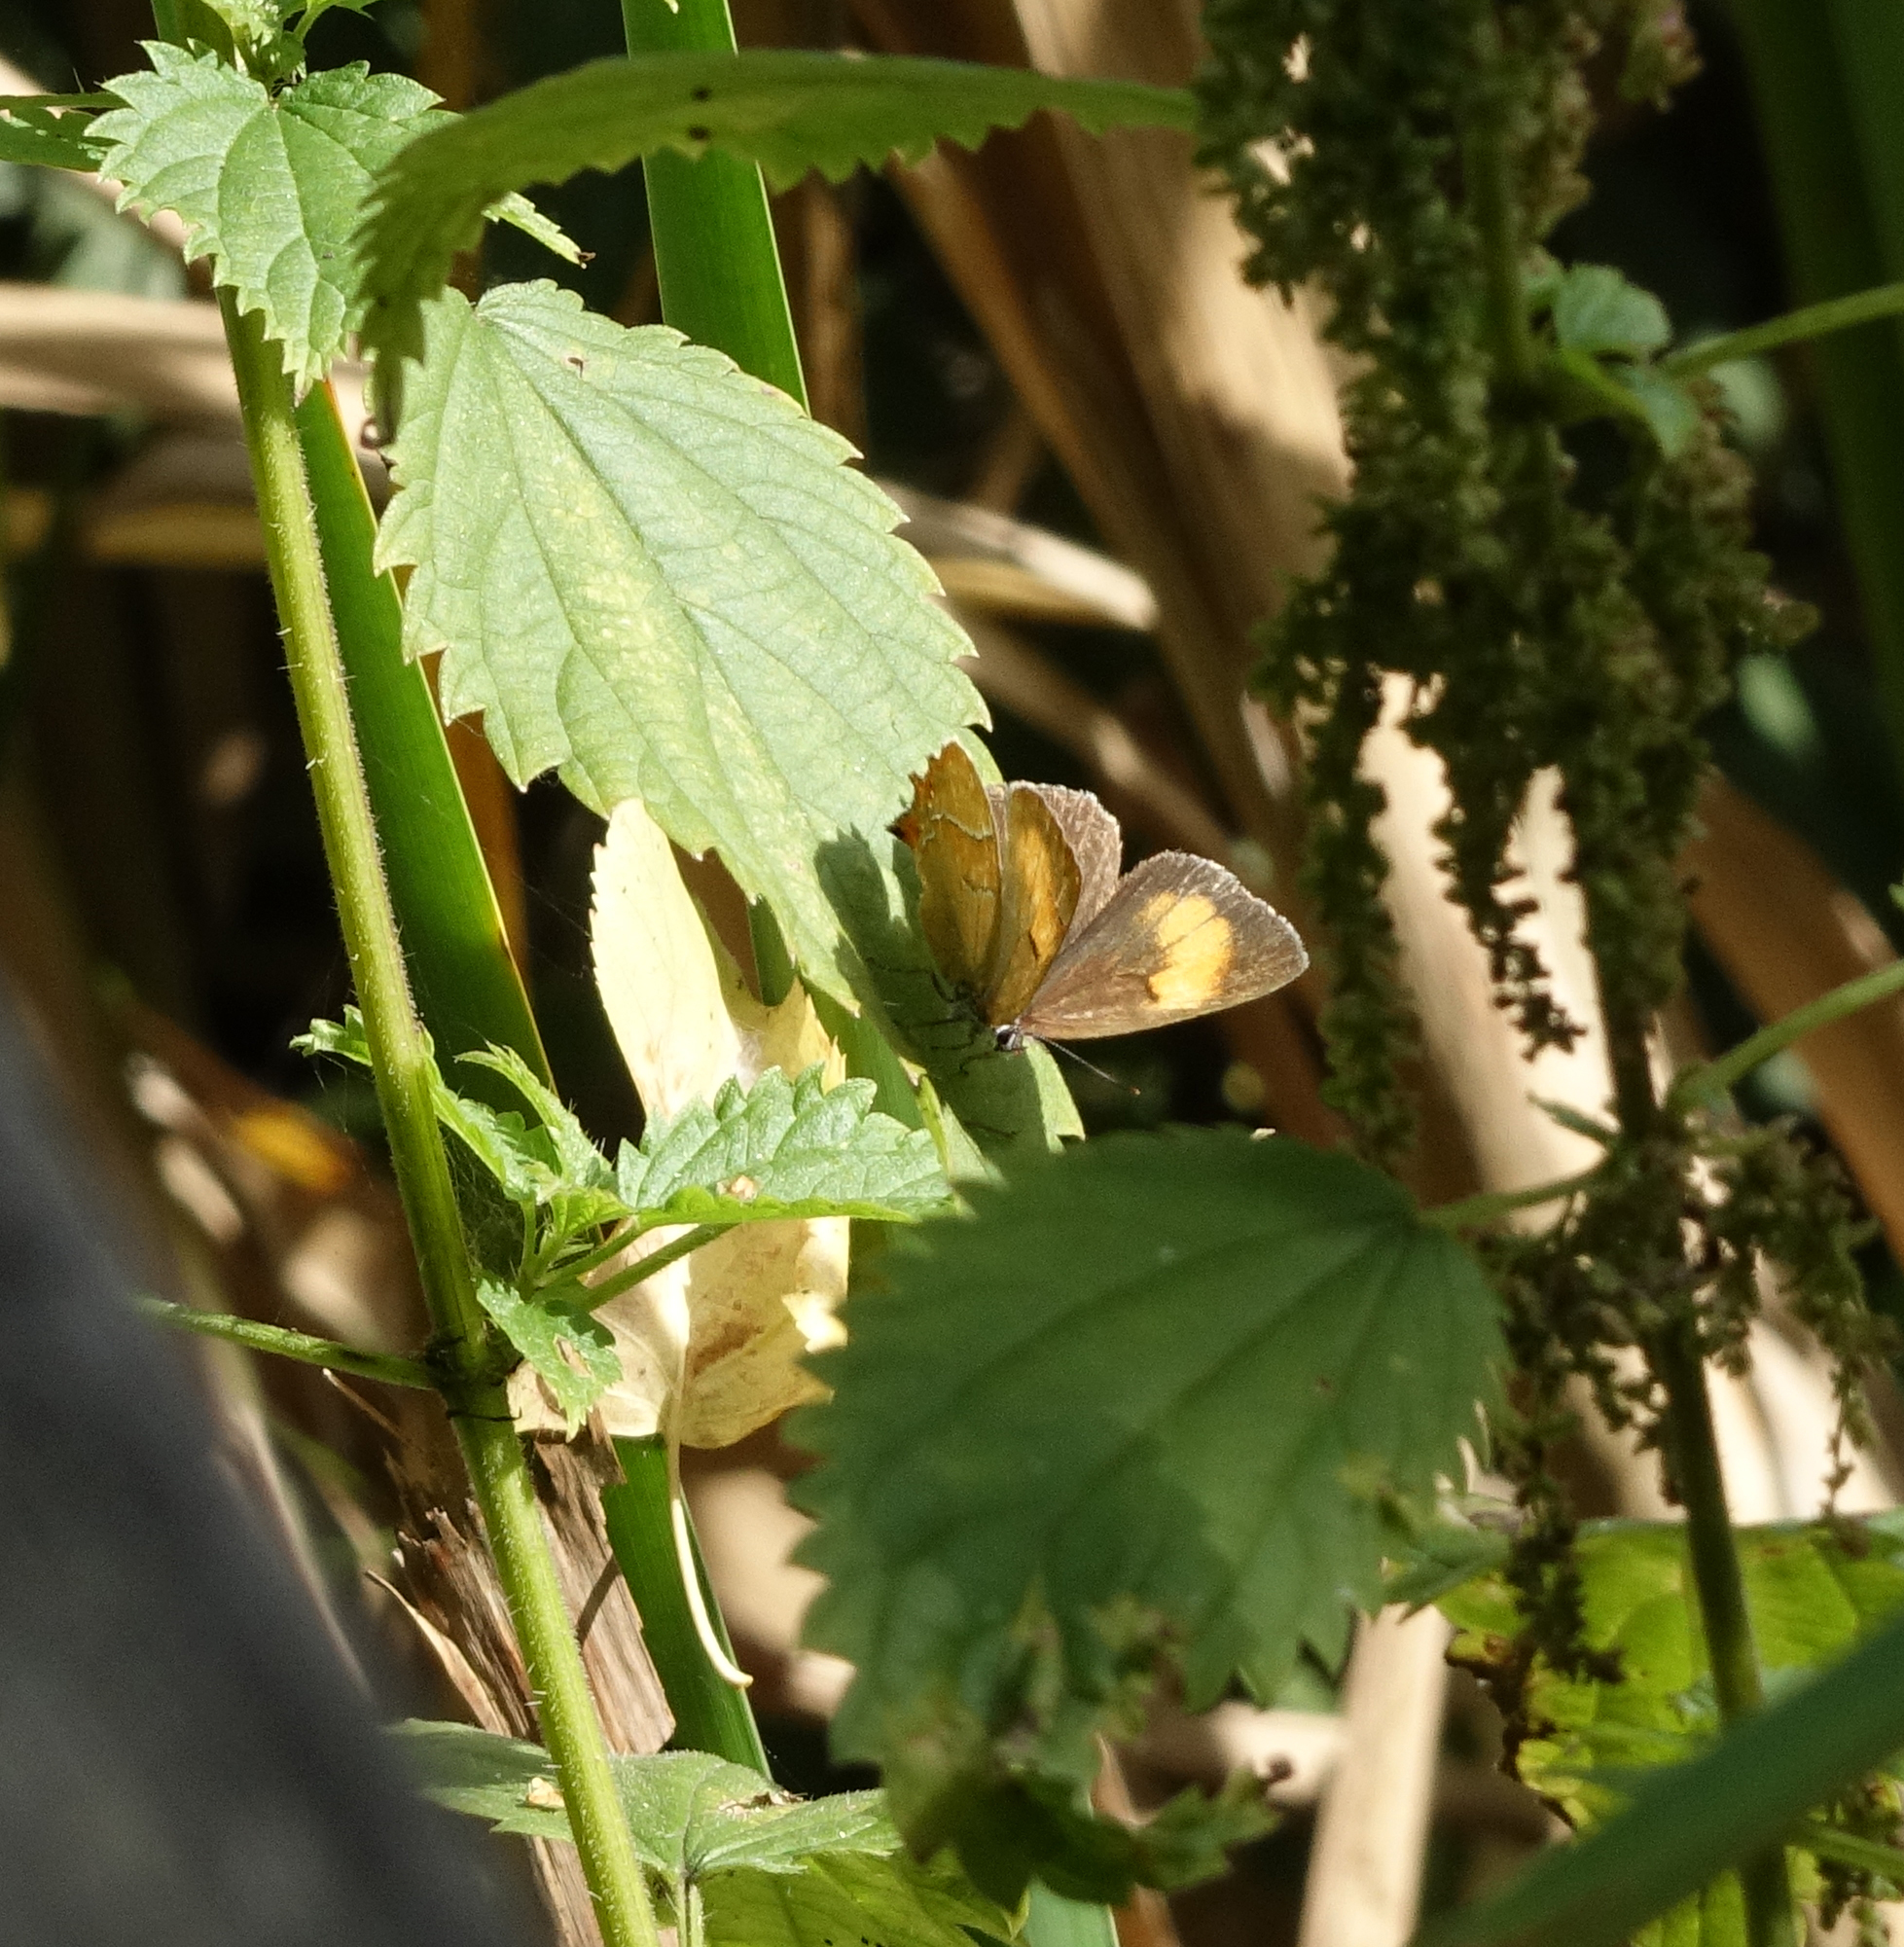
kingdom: Animalia
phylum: Arthropoda
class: Insecta
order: Lepidoptera
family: Lycaenidae
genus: Thecla
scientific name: Thecla betulae
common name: Brown hairstreak
